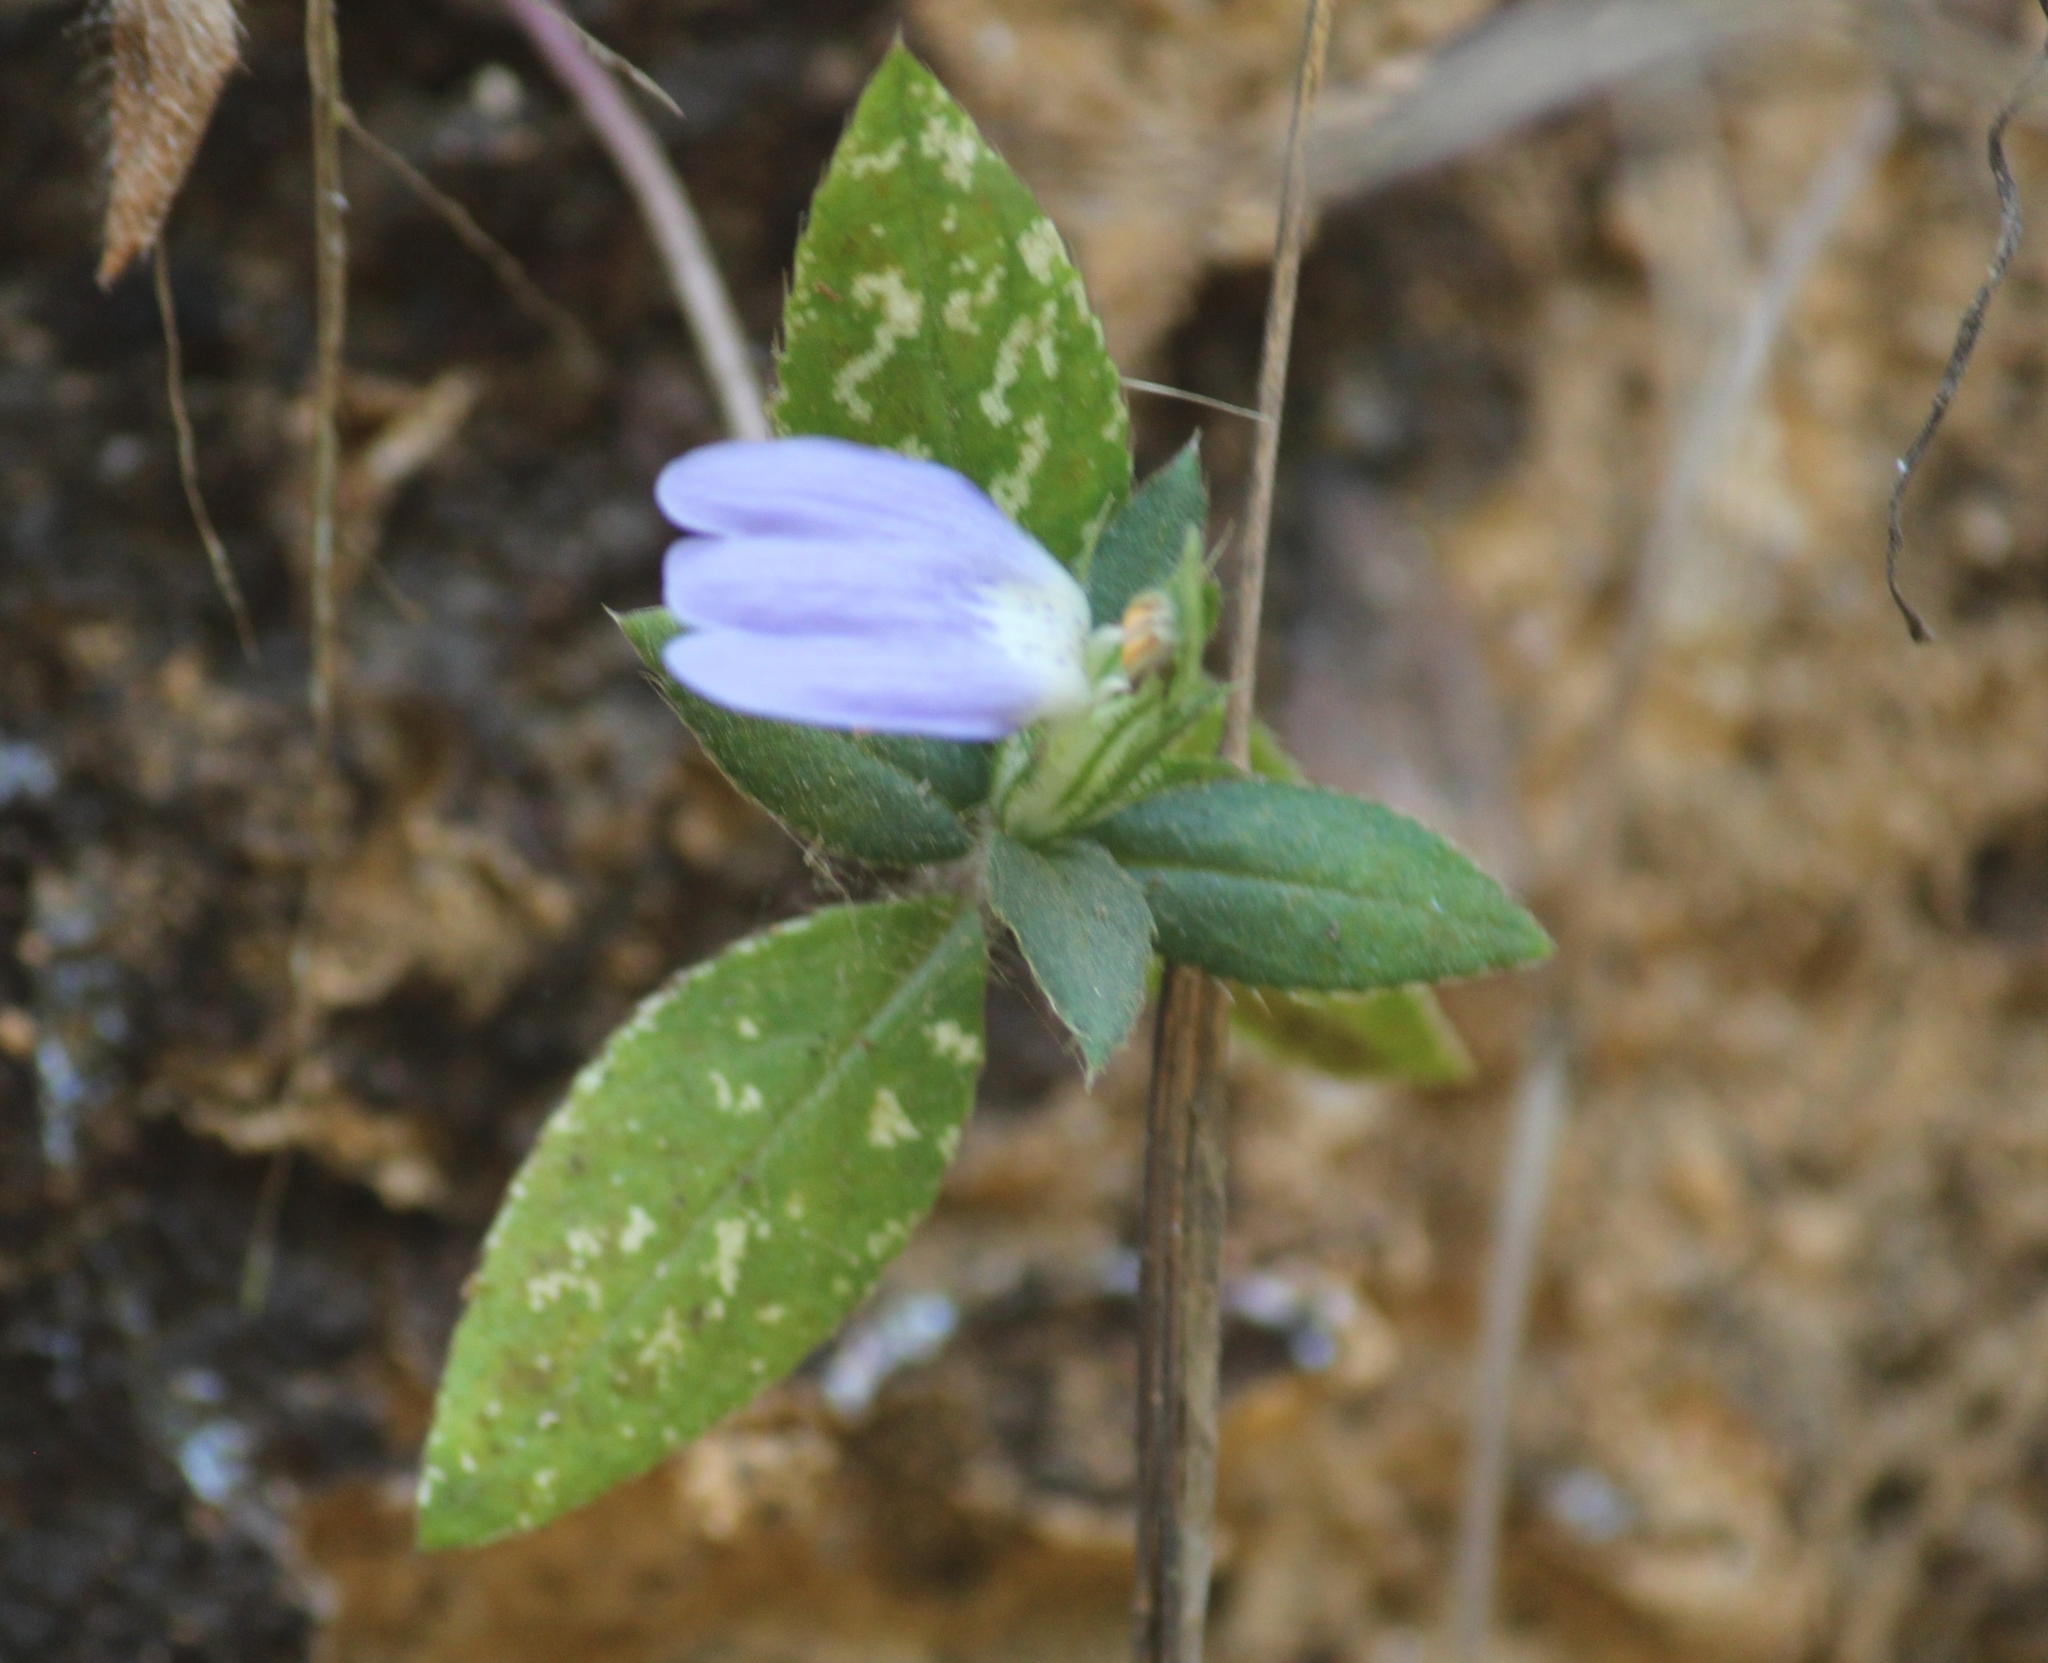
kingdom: Plantae
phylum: Tracheophyta
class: Magnoliopsida
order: Lamiales
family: Acanthaceae
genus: Cynarospermum
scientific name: Cynarospermum asperrimum
